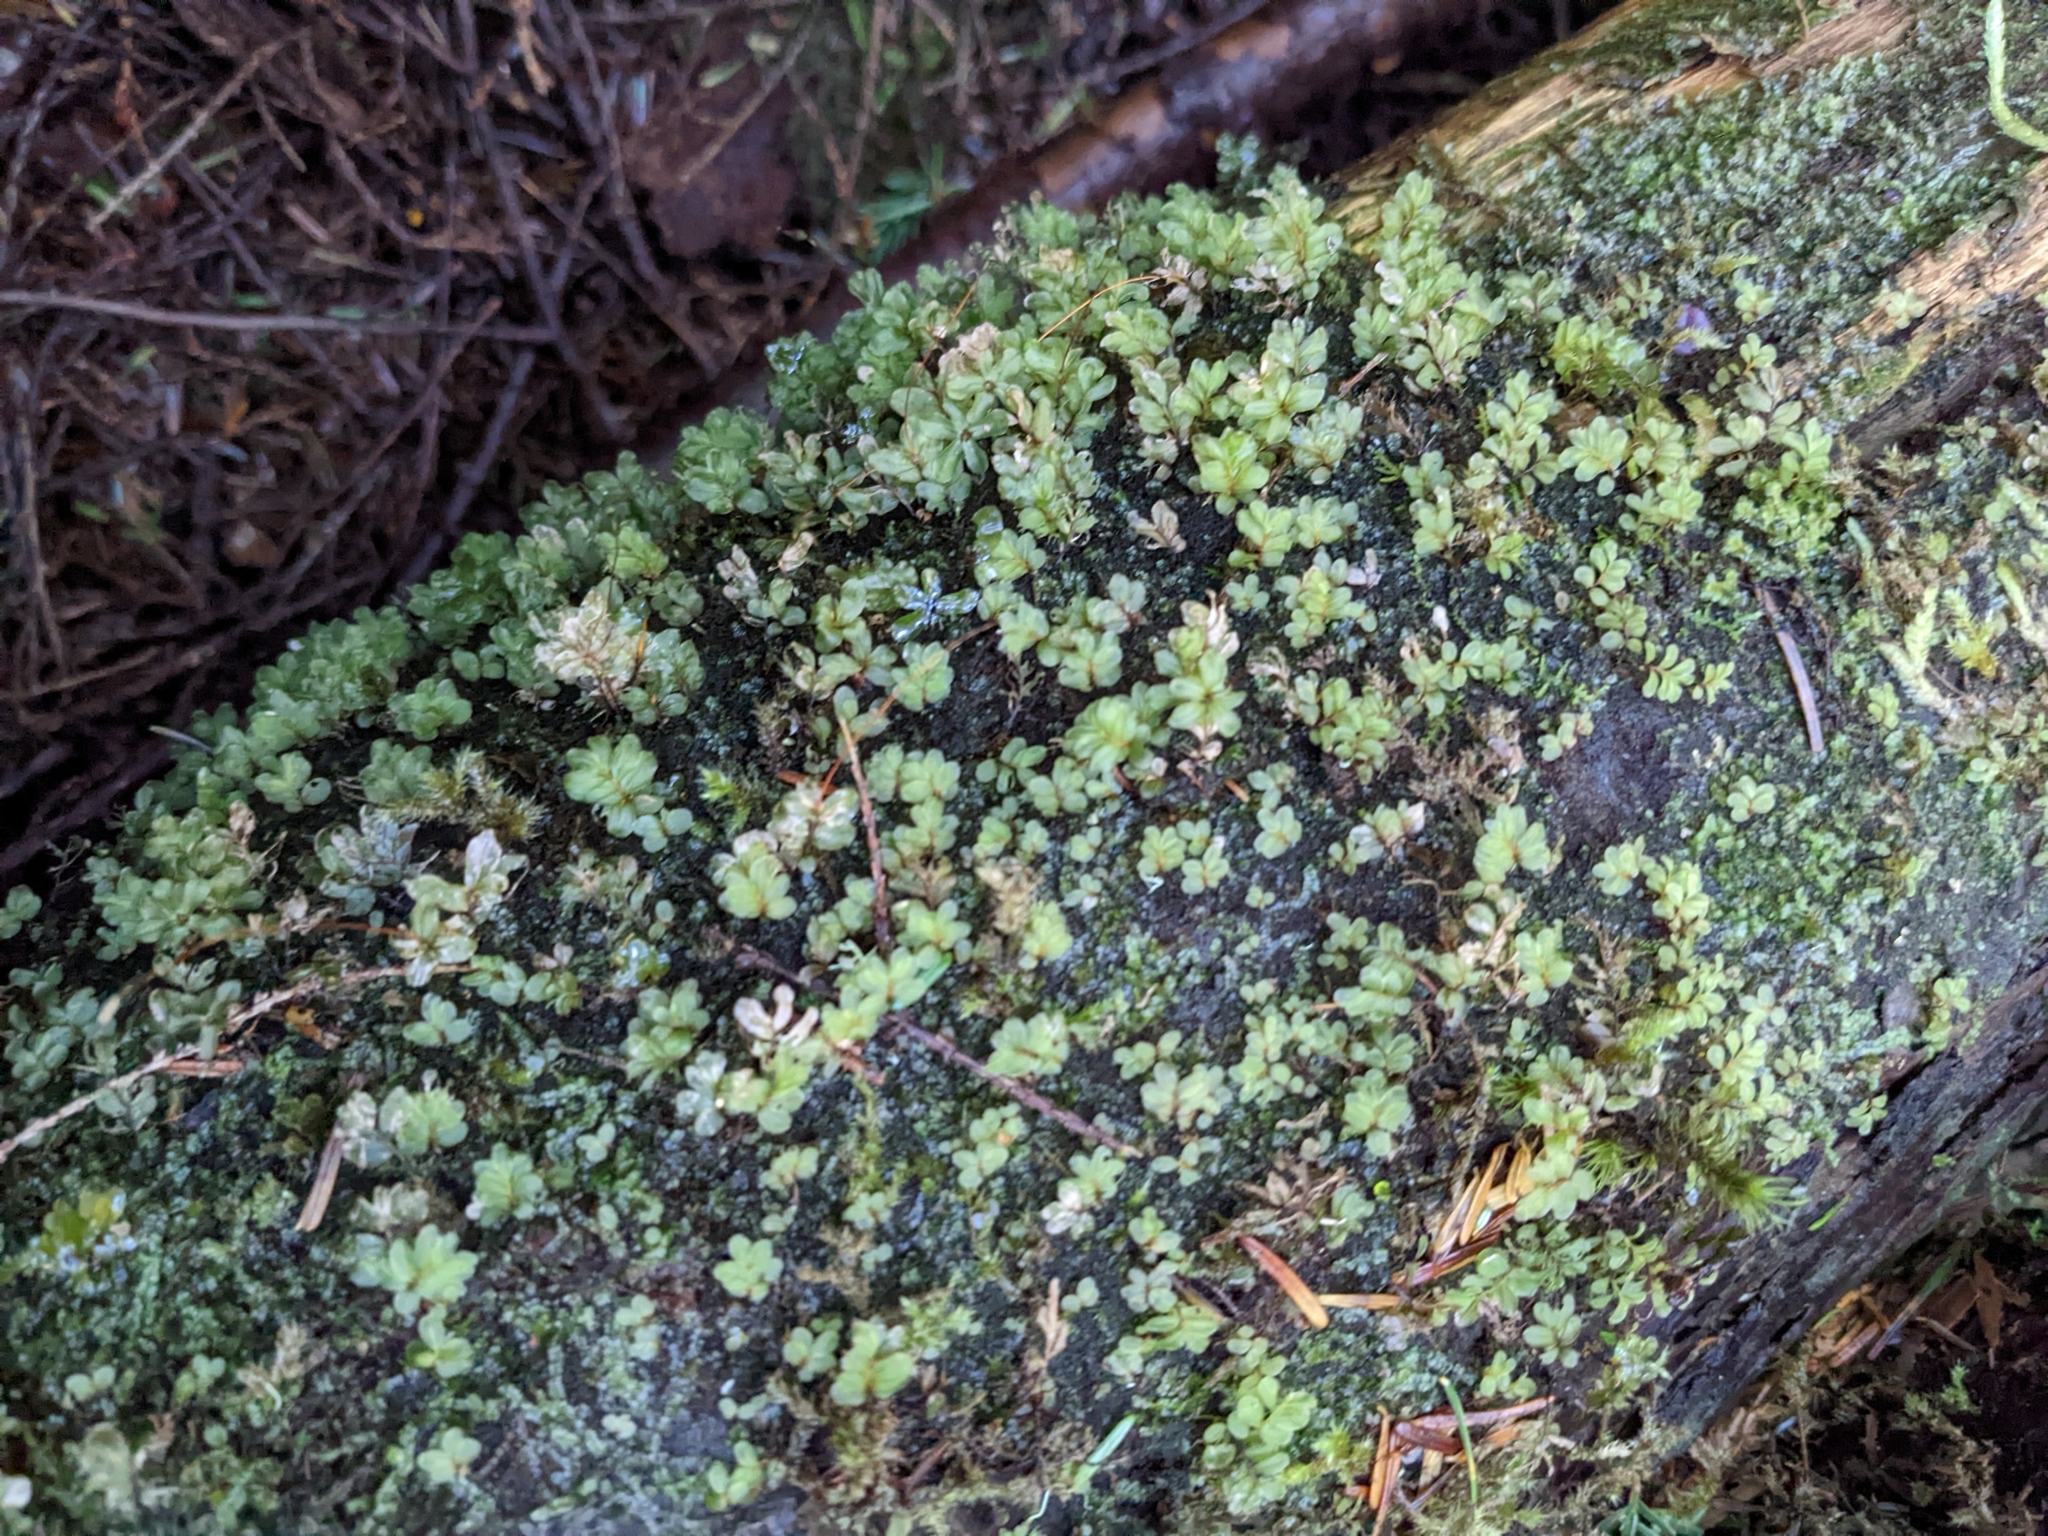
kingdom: Plantae
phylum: Bryophyta
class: Bryopsida
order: Bryales
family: Mniaceae
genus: Rhizomnium
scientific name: Rhizomnium glabrescens
